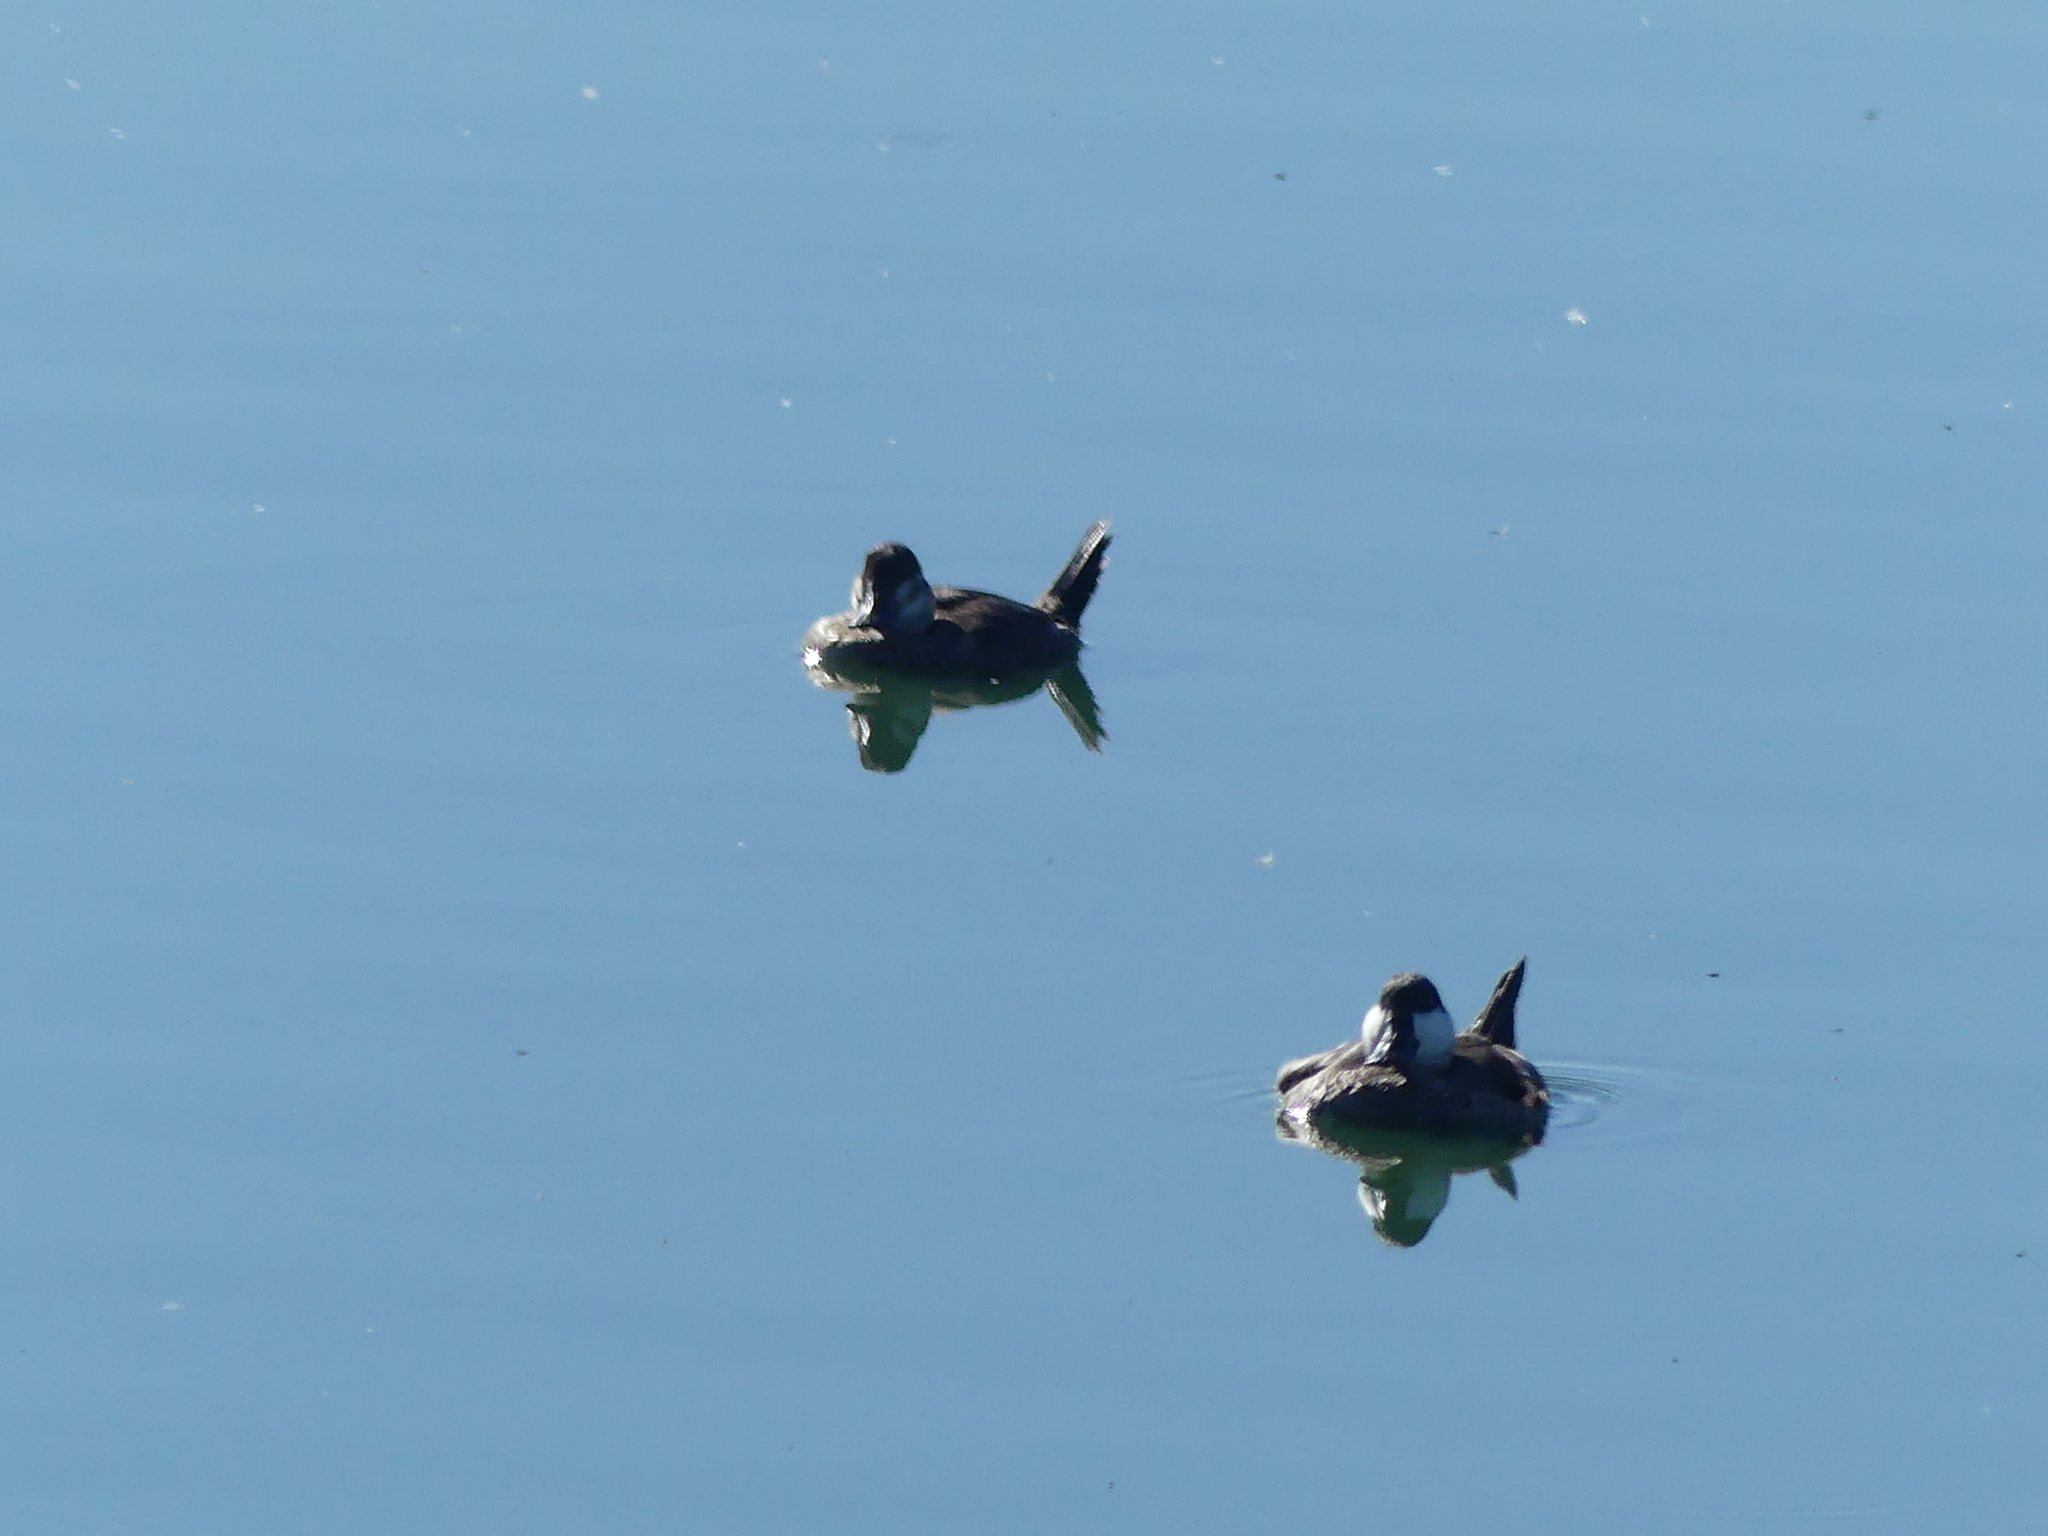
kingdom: Animalia
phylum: Chordata
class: Aves
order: Anseriformes
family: Anatidae
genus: Oxyura
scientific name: Oxyura jamaicensis
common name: Ruddy duck
